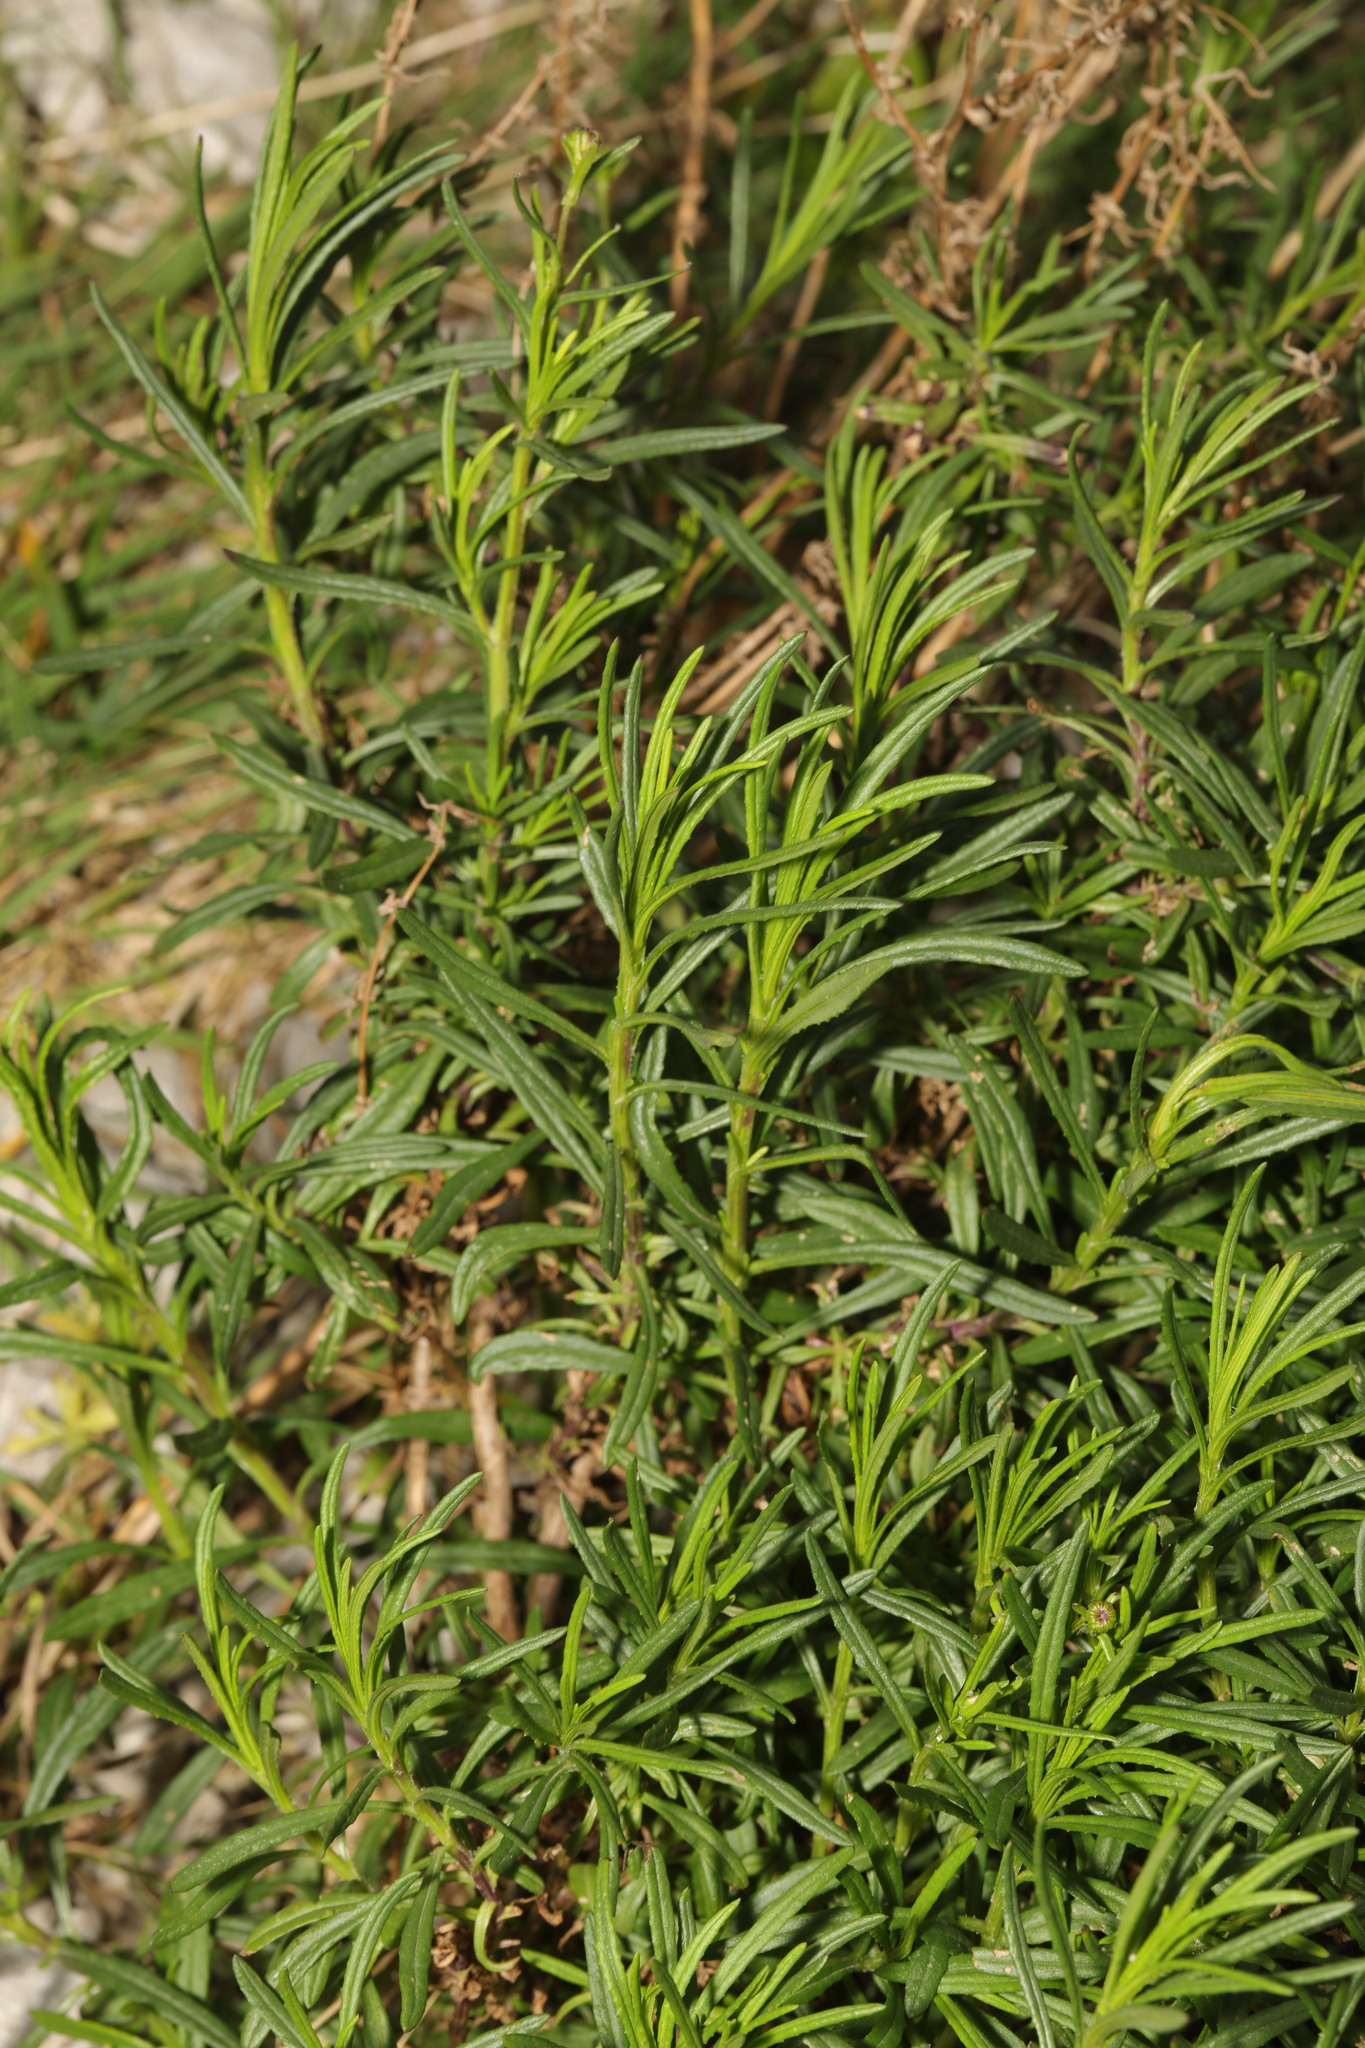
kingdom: Plantae
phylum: Tracheophyta
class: Magnoliopsida
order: Asterales
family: Asteraceae
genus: Senecio
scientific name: Senecio inaequidens
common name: Narrow-leaved ragwort
